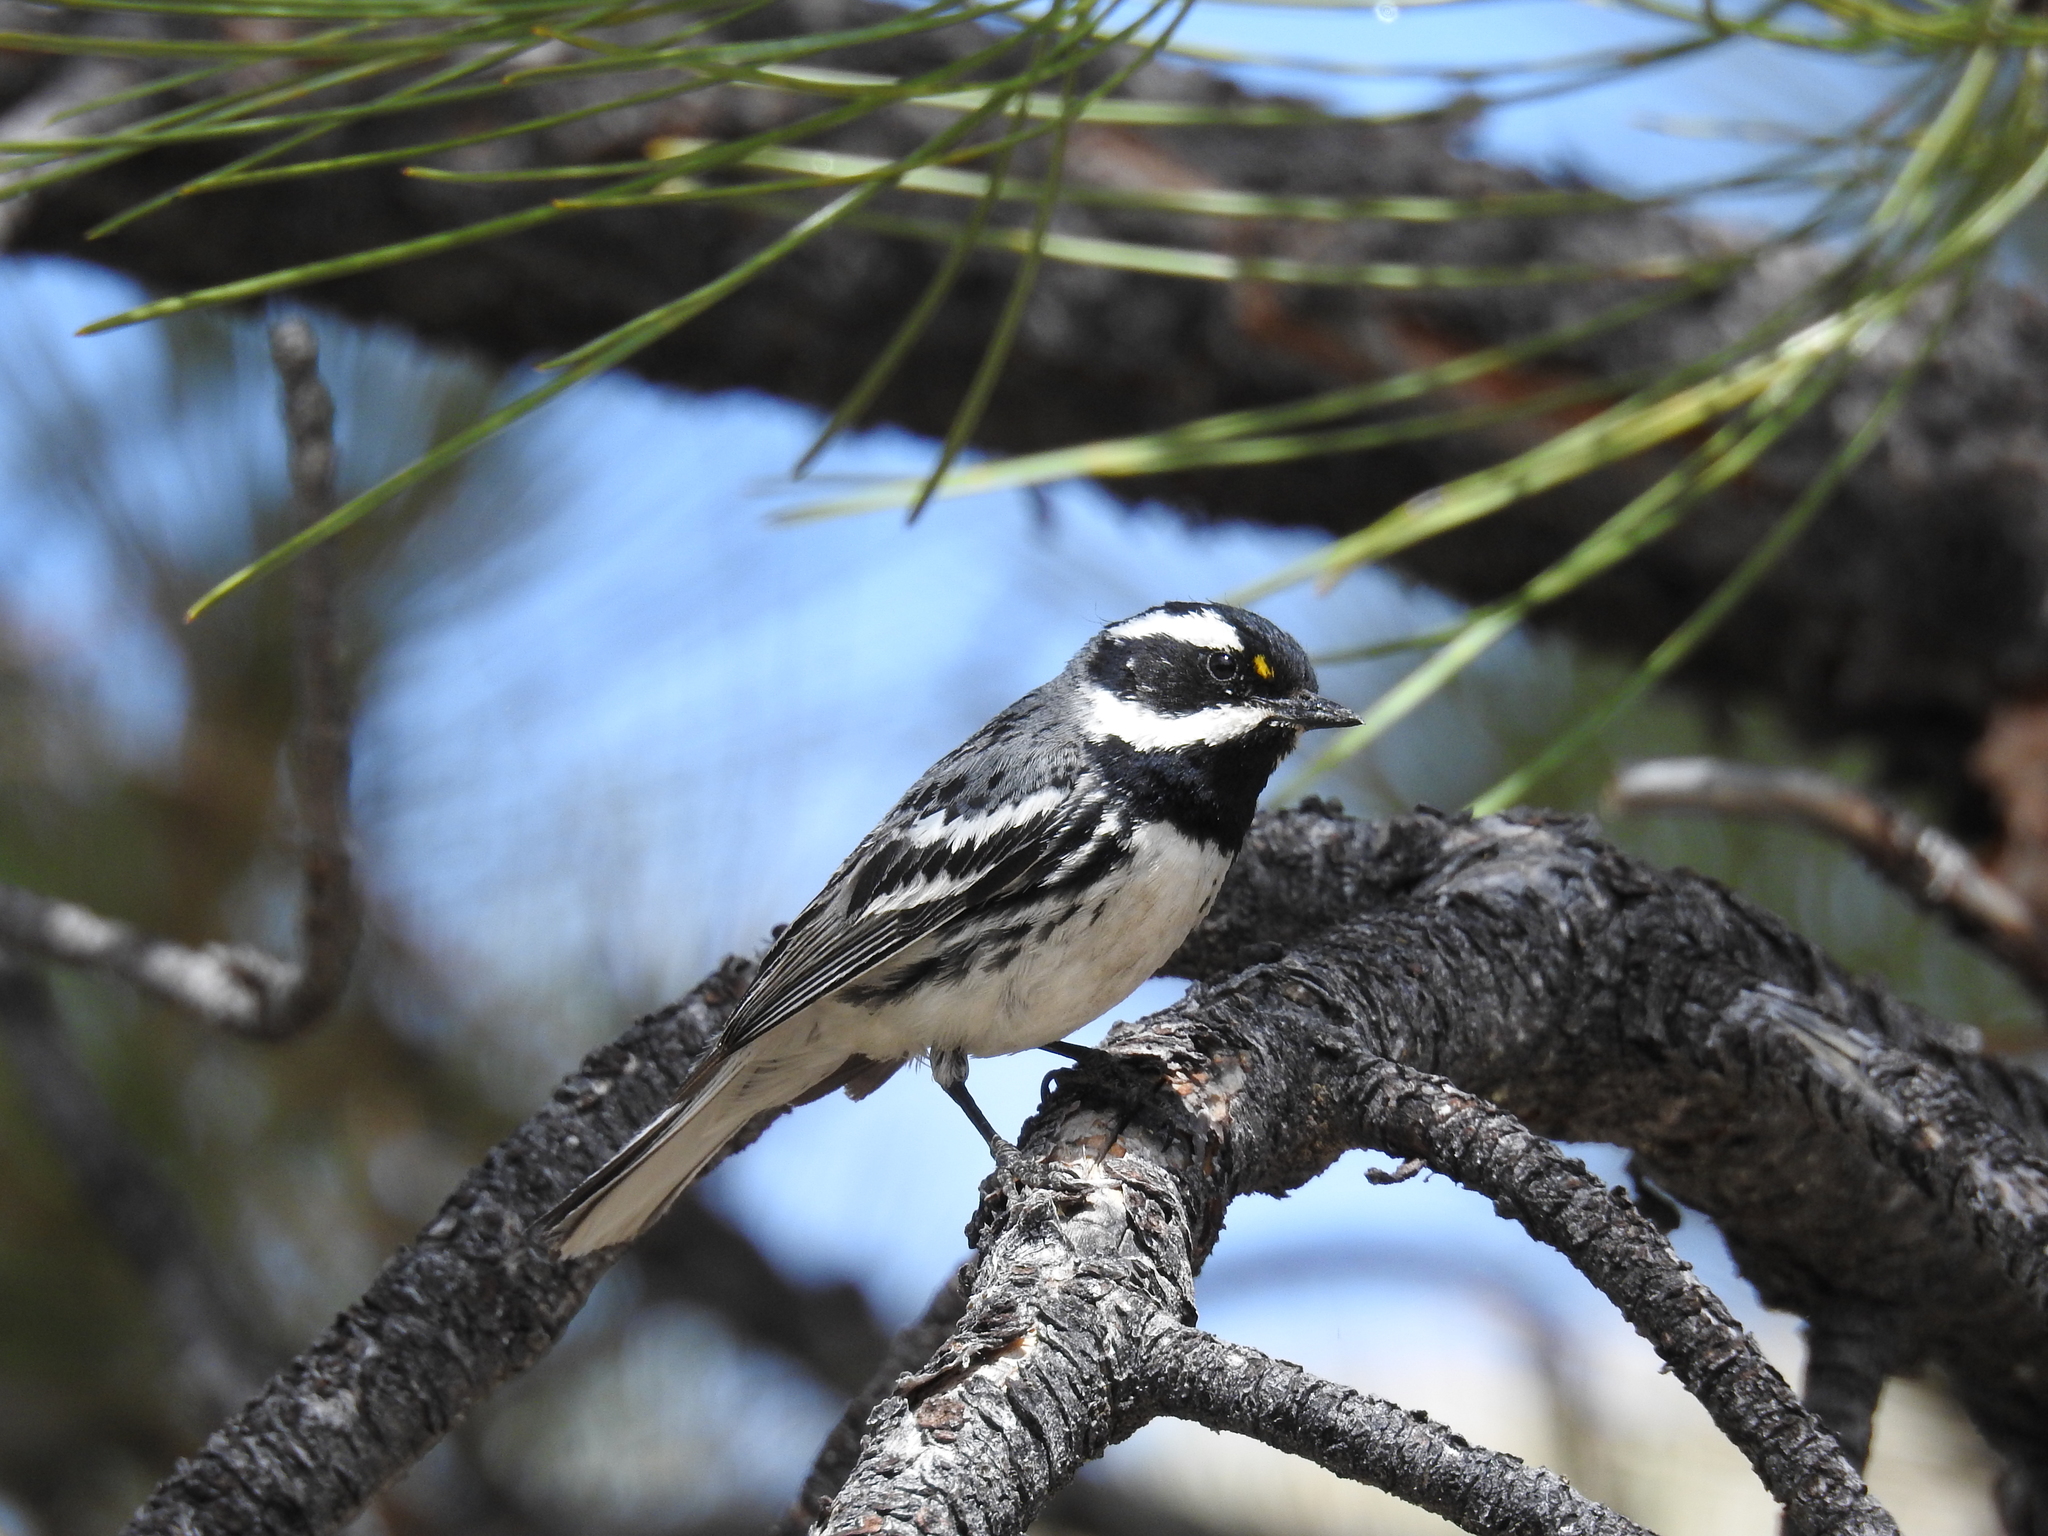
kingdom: Animalia
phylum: Chordata
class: Aves
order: Passeriformes
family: Parulidae
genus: Setophaga
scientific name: Setophaga nigrescens
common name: Black-throated gray warbler
